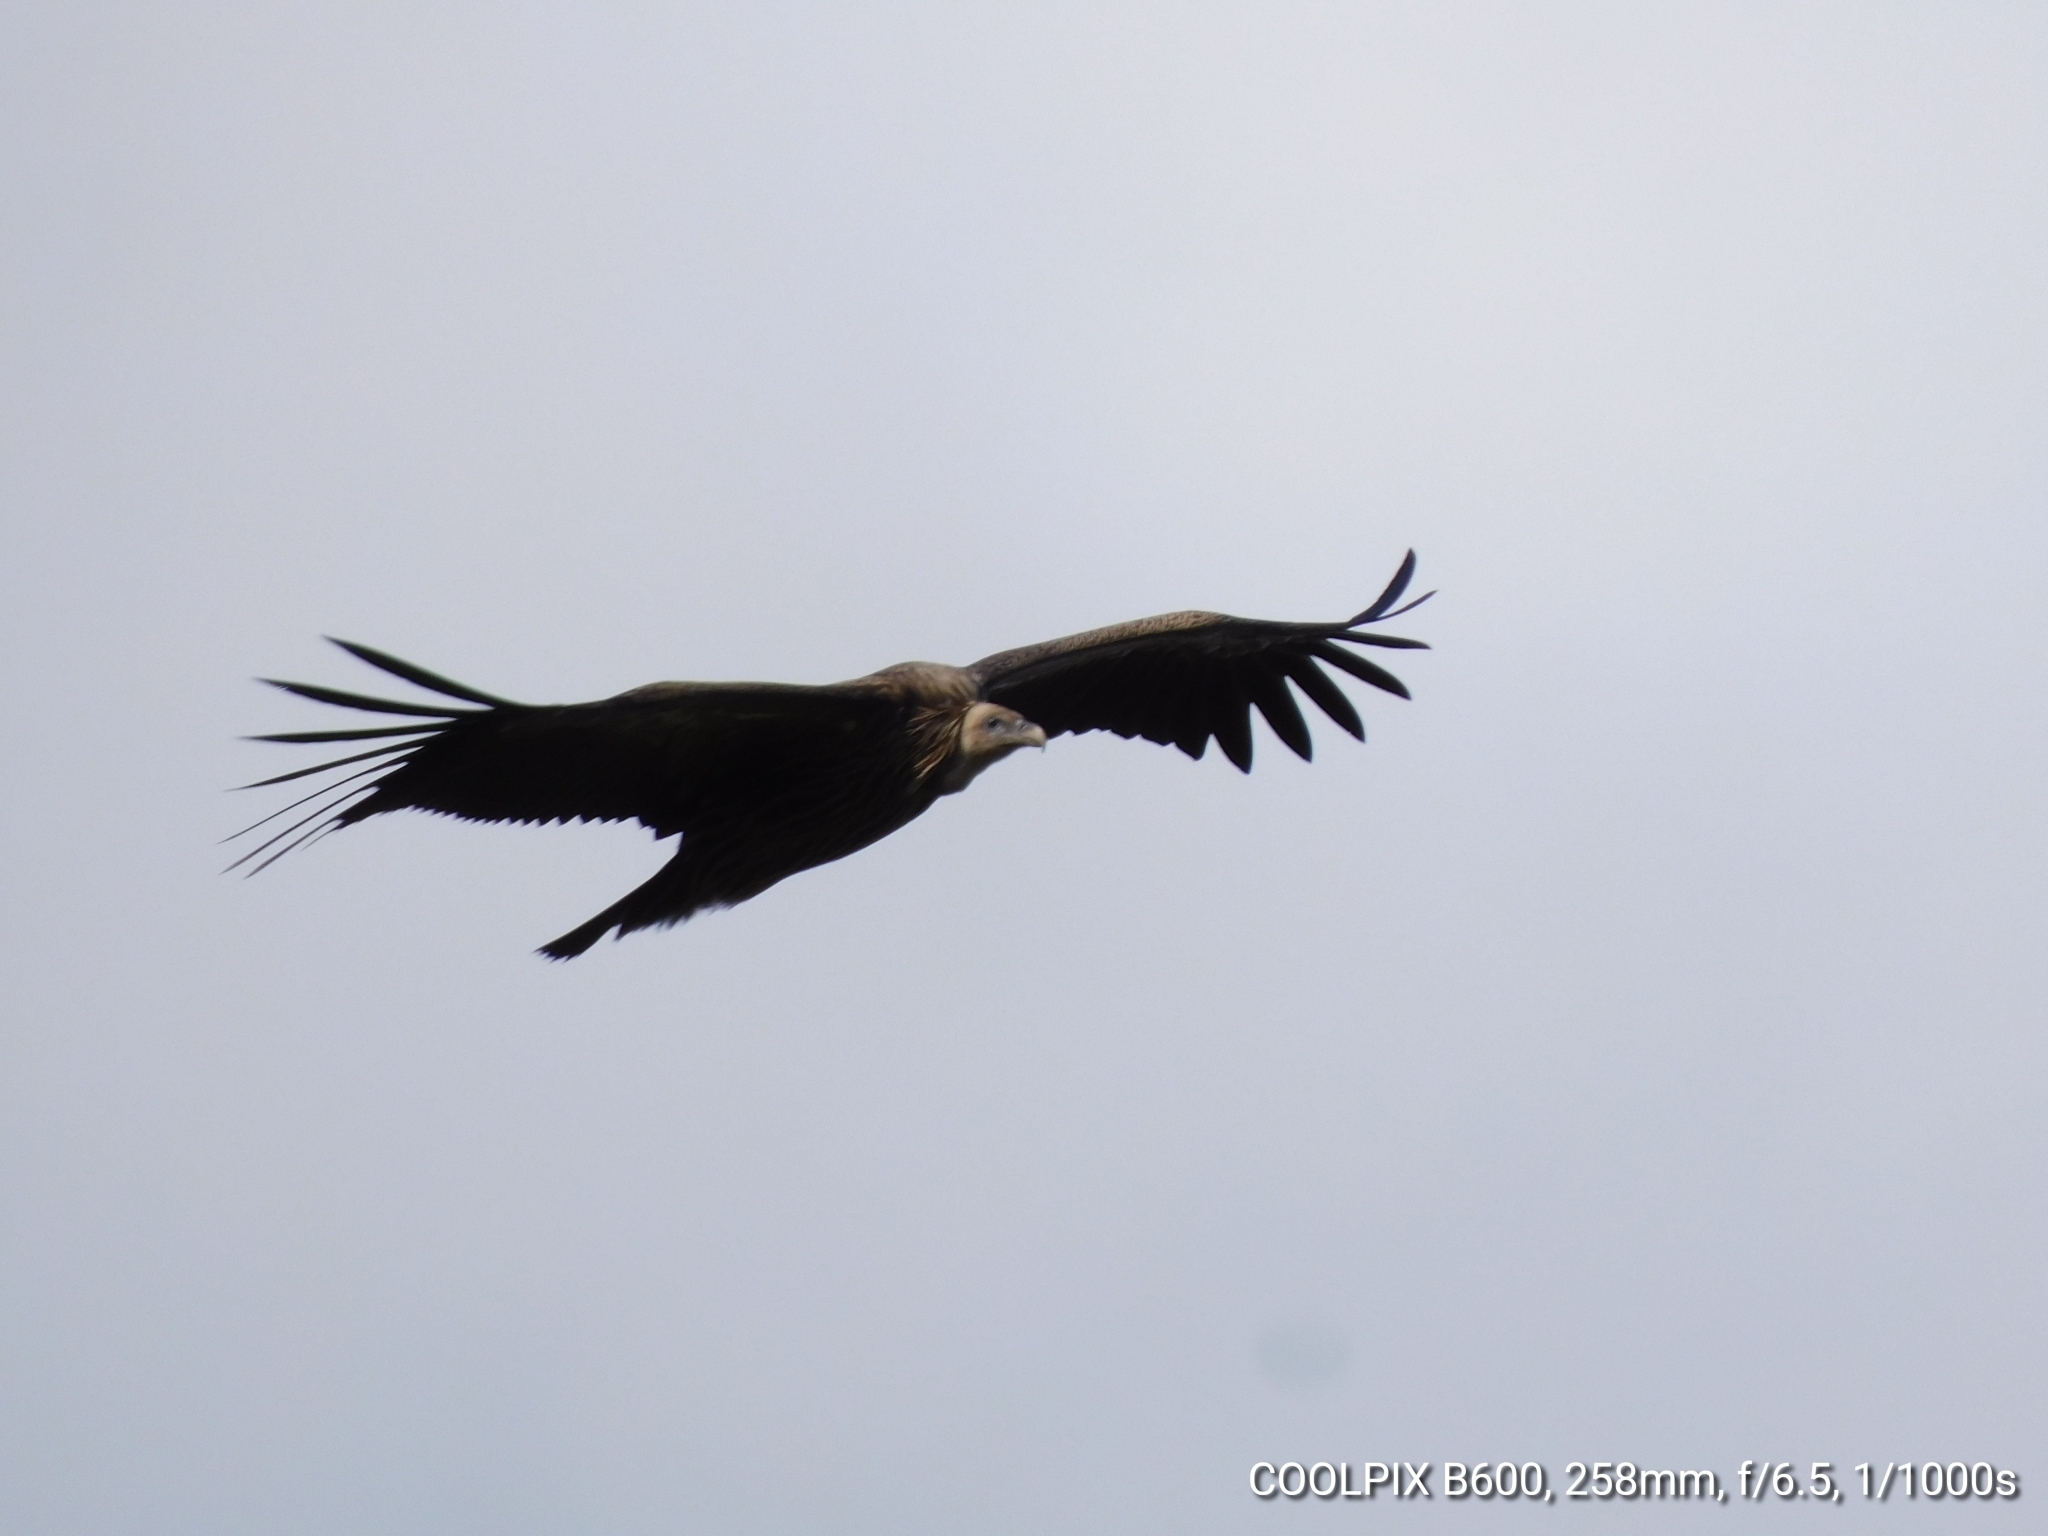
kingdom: Animalia
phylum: Chordata
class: Aves
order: Accipitriformes
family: Accipitridae
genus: Gyps
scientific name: Gyps himalayensis
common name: Himalayan griffon
